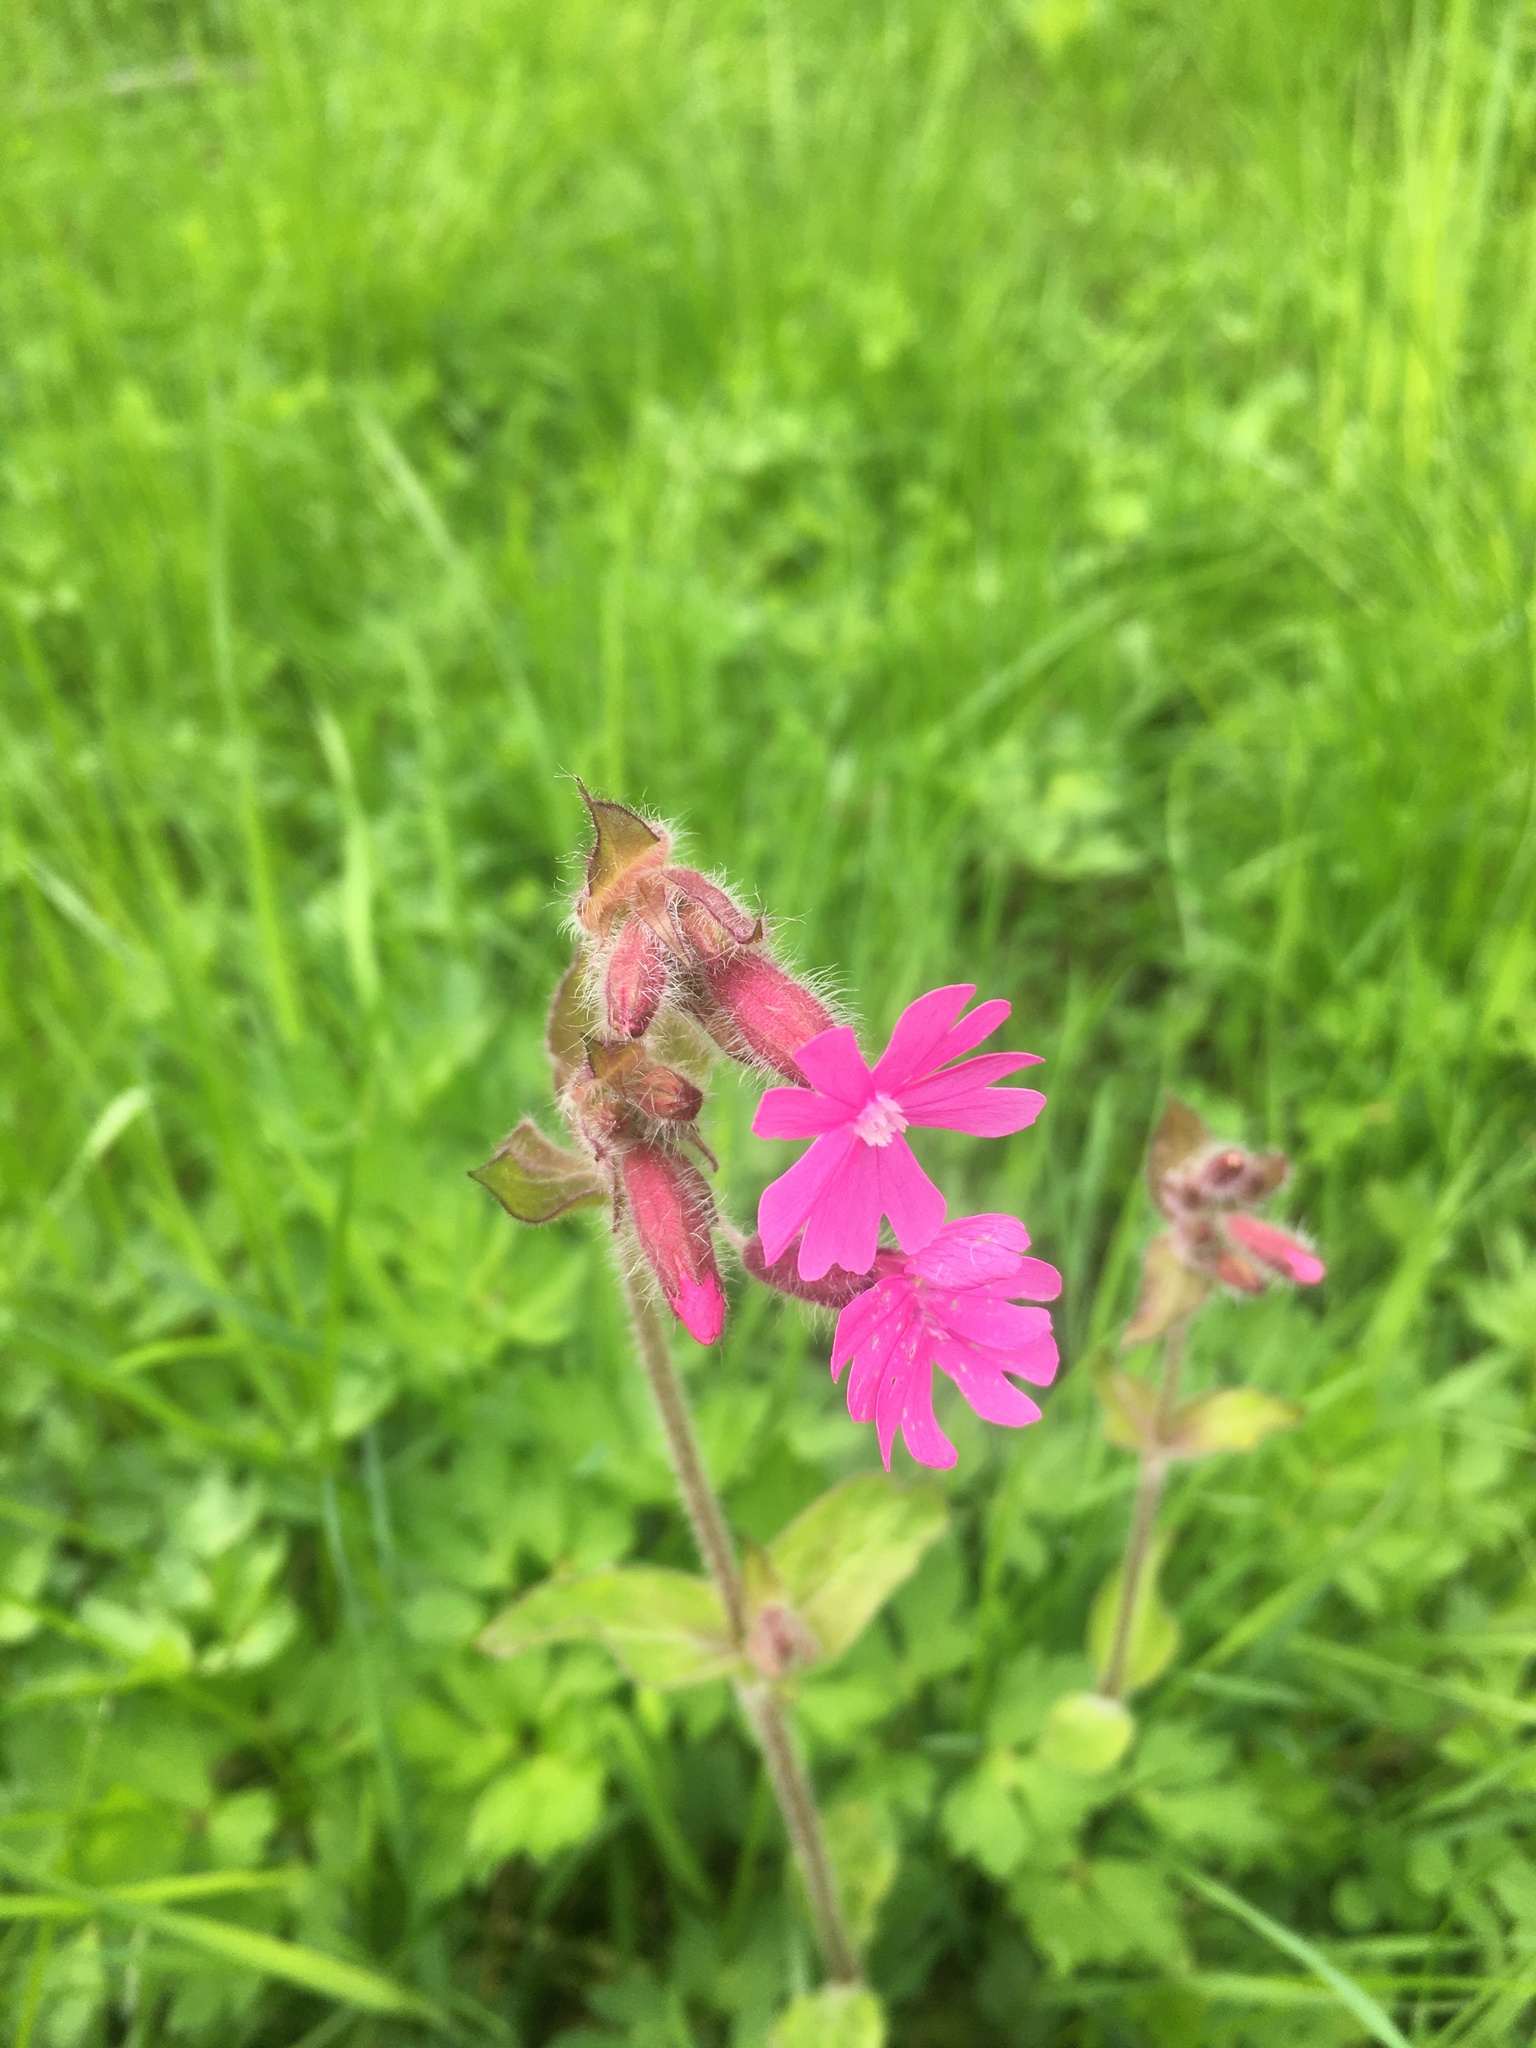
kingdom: Plantae
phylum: Tracheophyta
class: Magnoliopsida
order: Caryophyllales
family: Caryophyllaceae
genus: Silene
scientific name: Silene dioica
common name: Red campion
